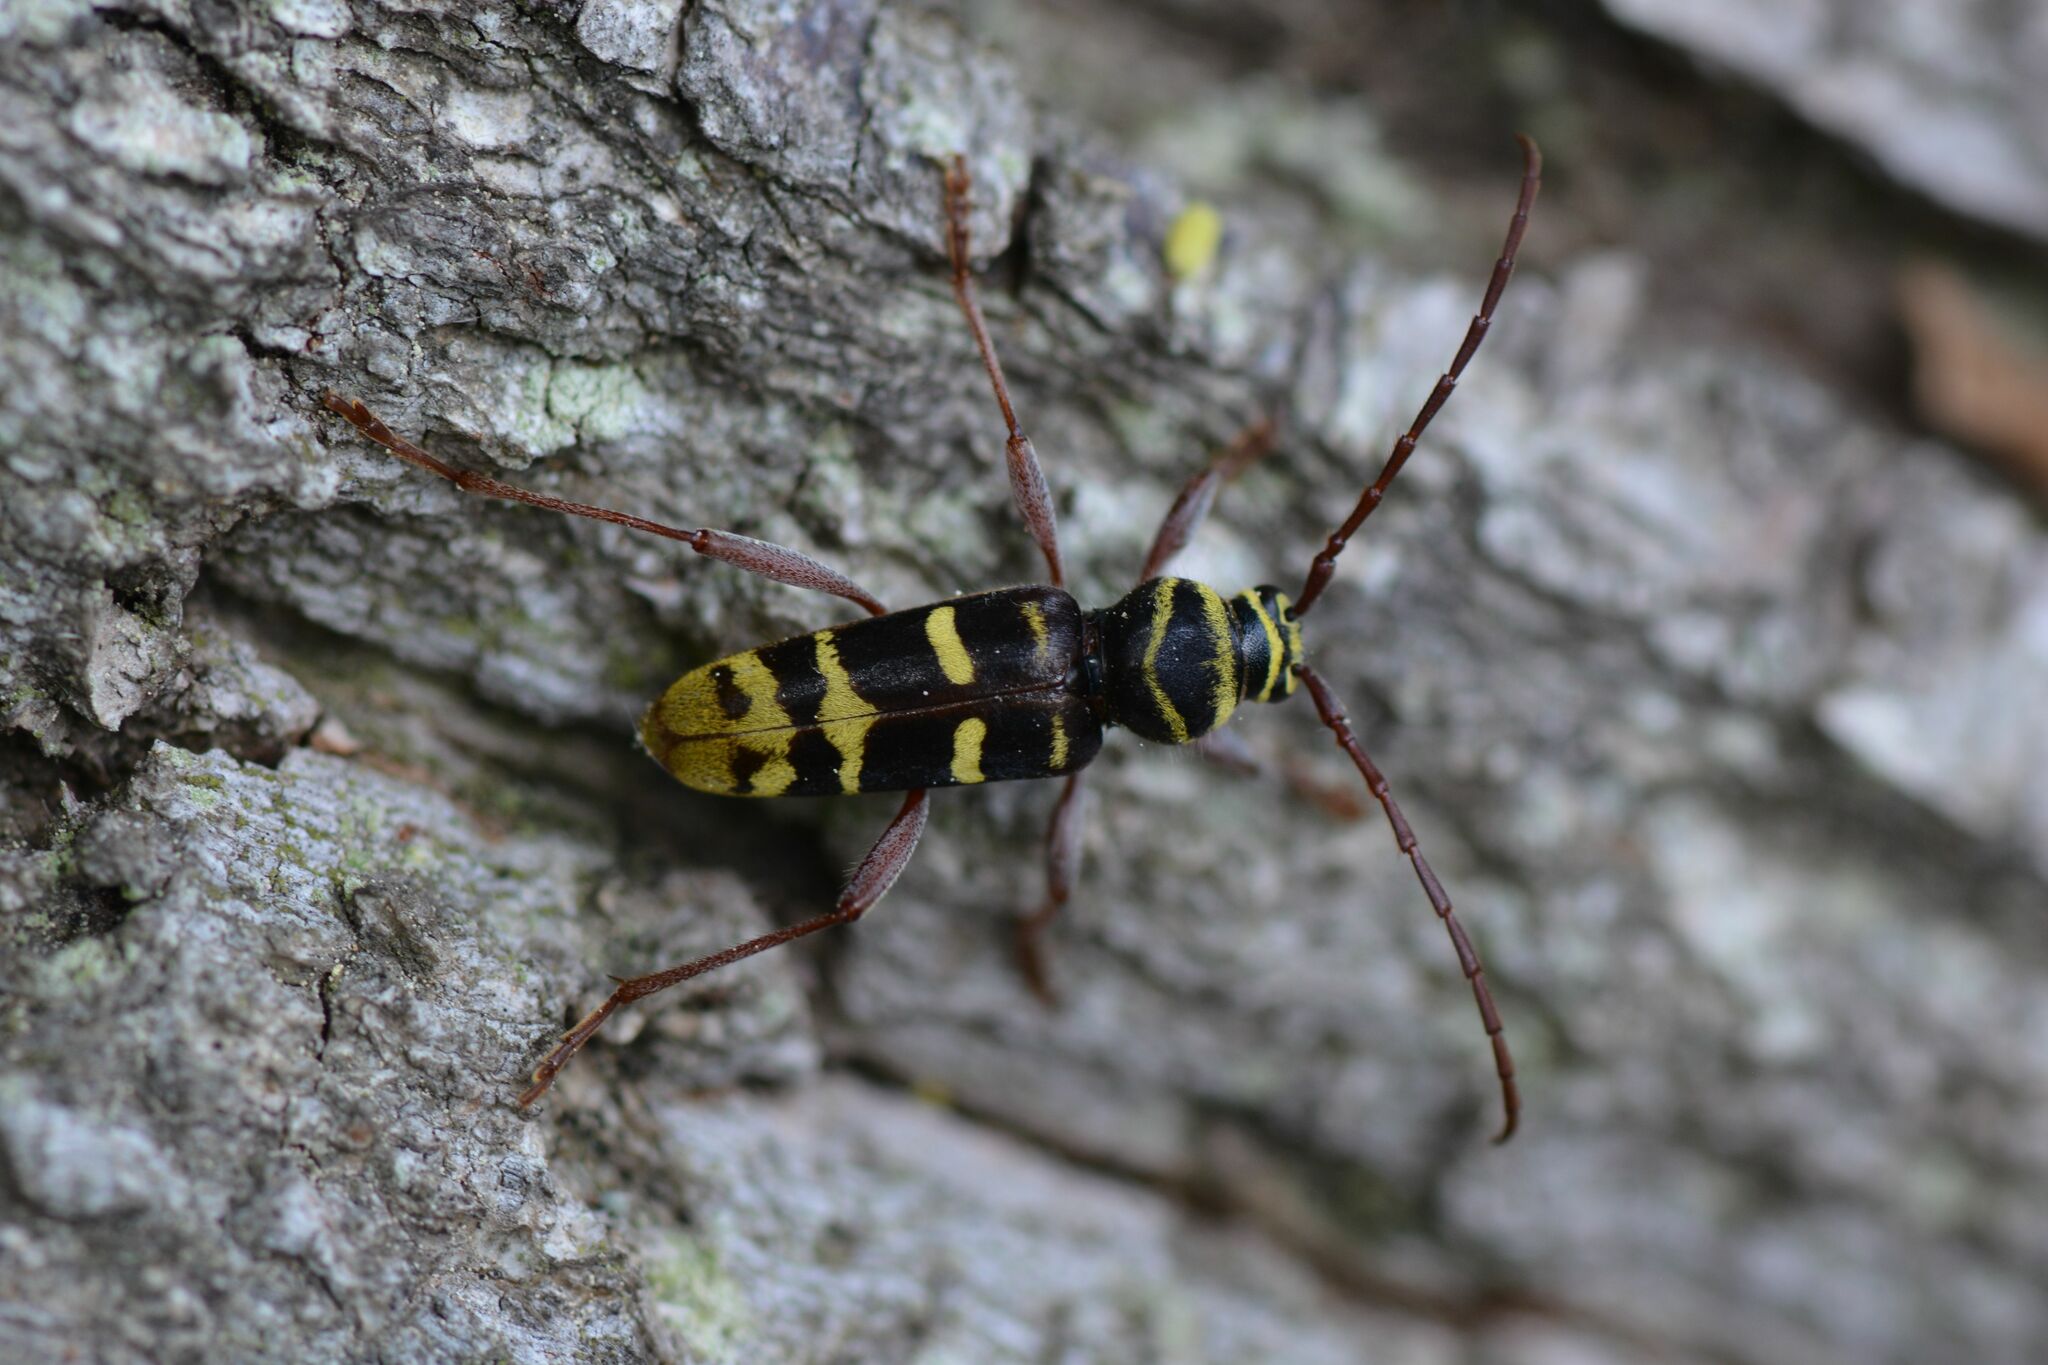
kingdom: Animalia
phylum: Arthropoda
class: Insecta
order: Coleoptera
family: Cerambycidae
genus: Plagionotus
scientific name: Plagionotus detritus
